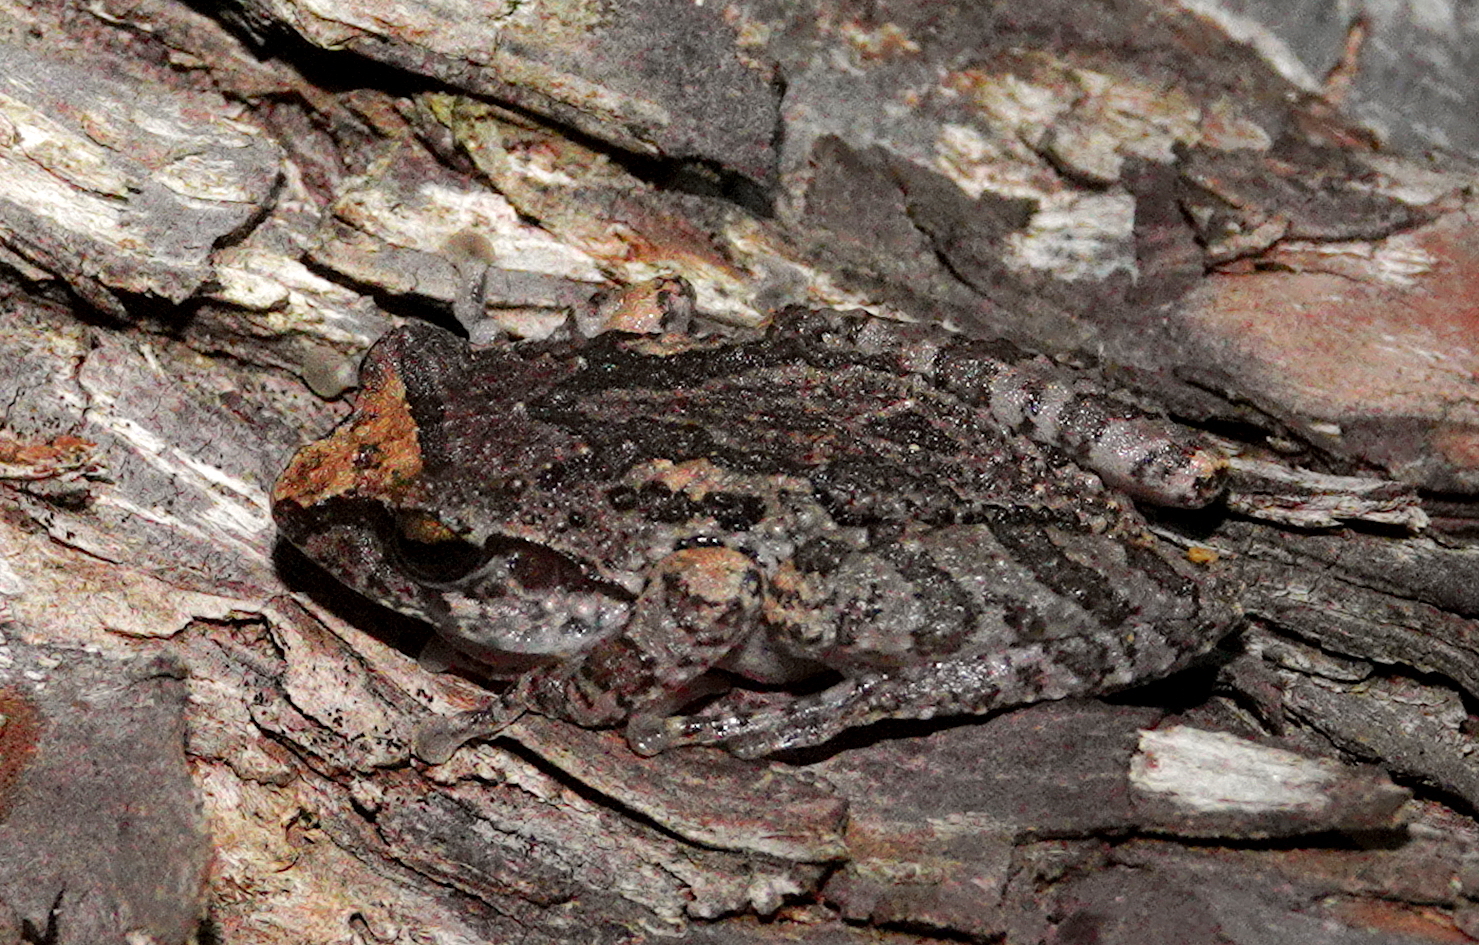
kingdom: Animalia
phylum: Chordata
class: Amphibia
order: Anura
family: Rhacophoridae
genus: Pseudophilautus
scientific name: Pseudophilautus microtympanum
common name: Small-eared shrub frog
